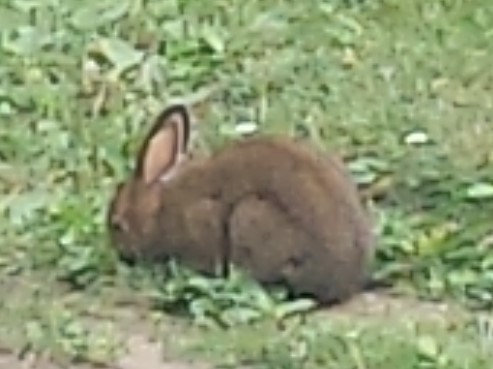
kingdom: Animalia
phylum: Chordata
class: Mammalia
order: Lagomorpha
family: Leporidae
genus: Lepus
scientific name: Lepus americanus
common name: Snowshoe hare
